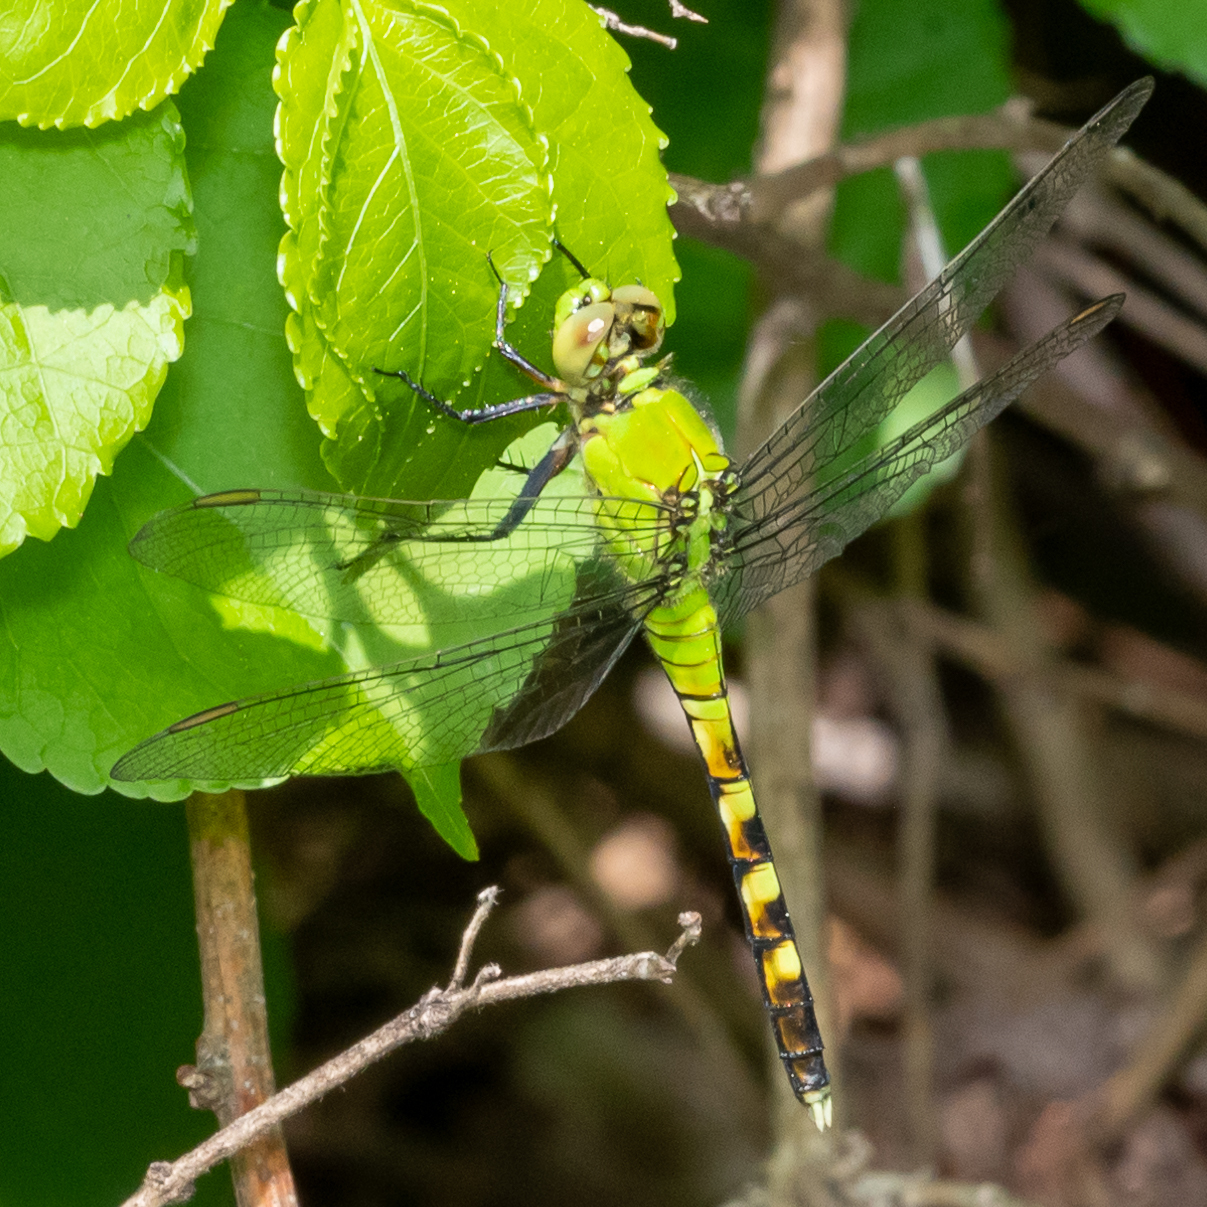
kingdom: Animalia
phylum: Arthropoda
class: Insecta
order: Odonata
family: Libellulidae
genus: Erythemis
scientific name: Erythemis simplicicollis
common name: Eastern pondhawk
